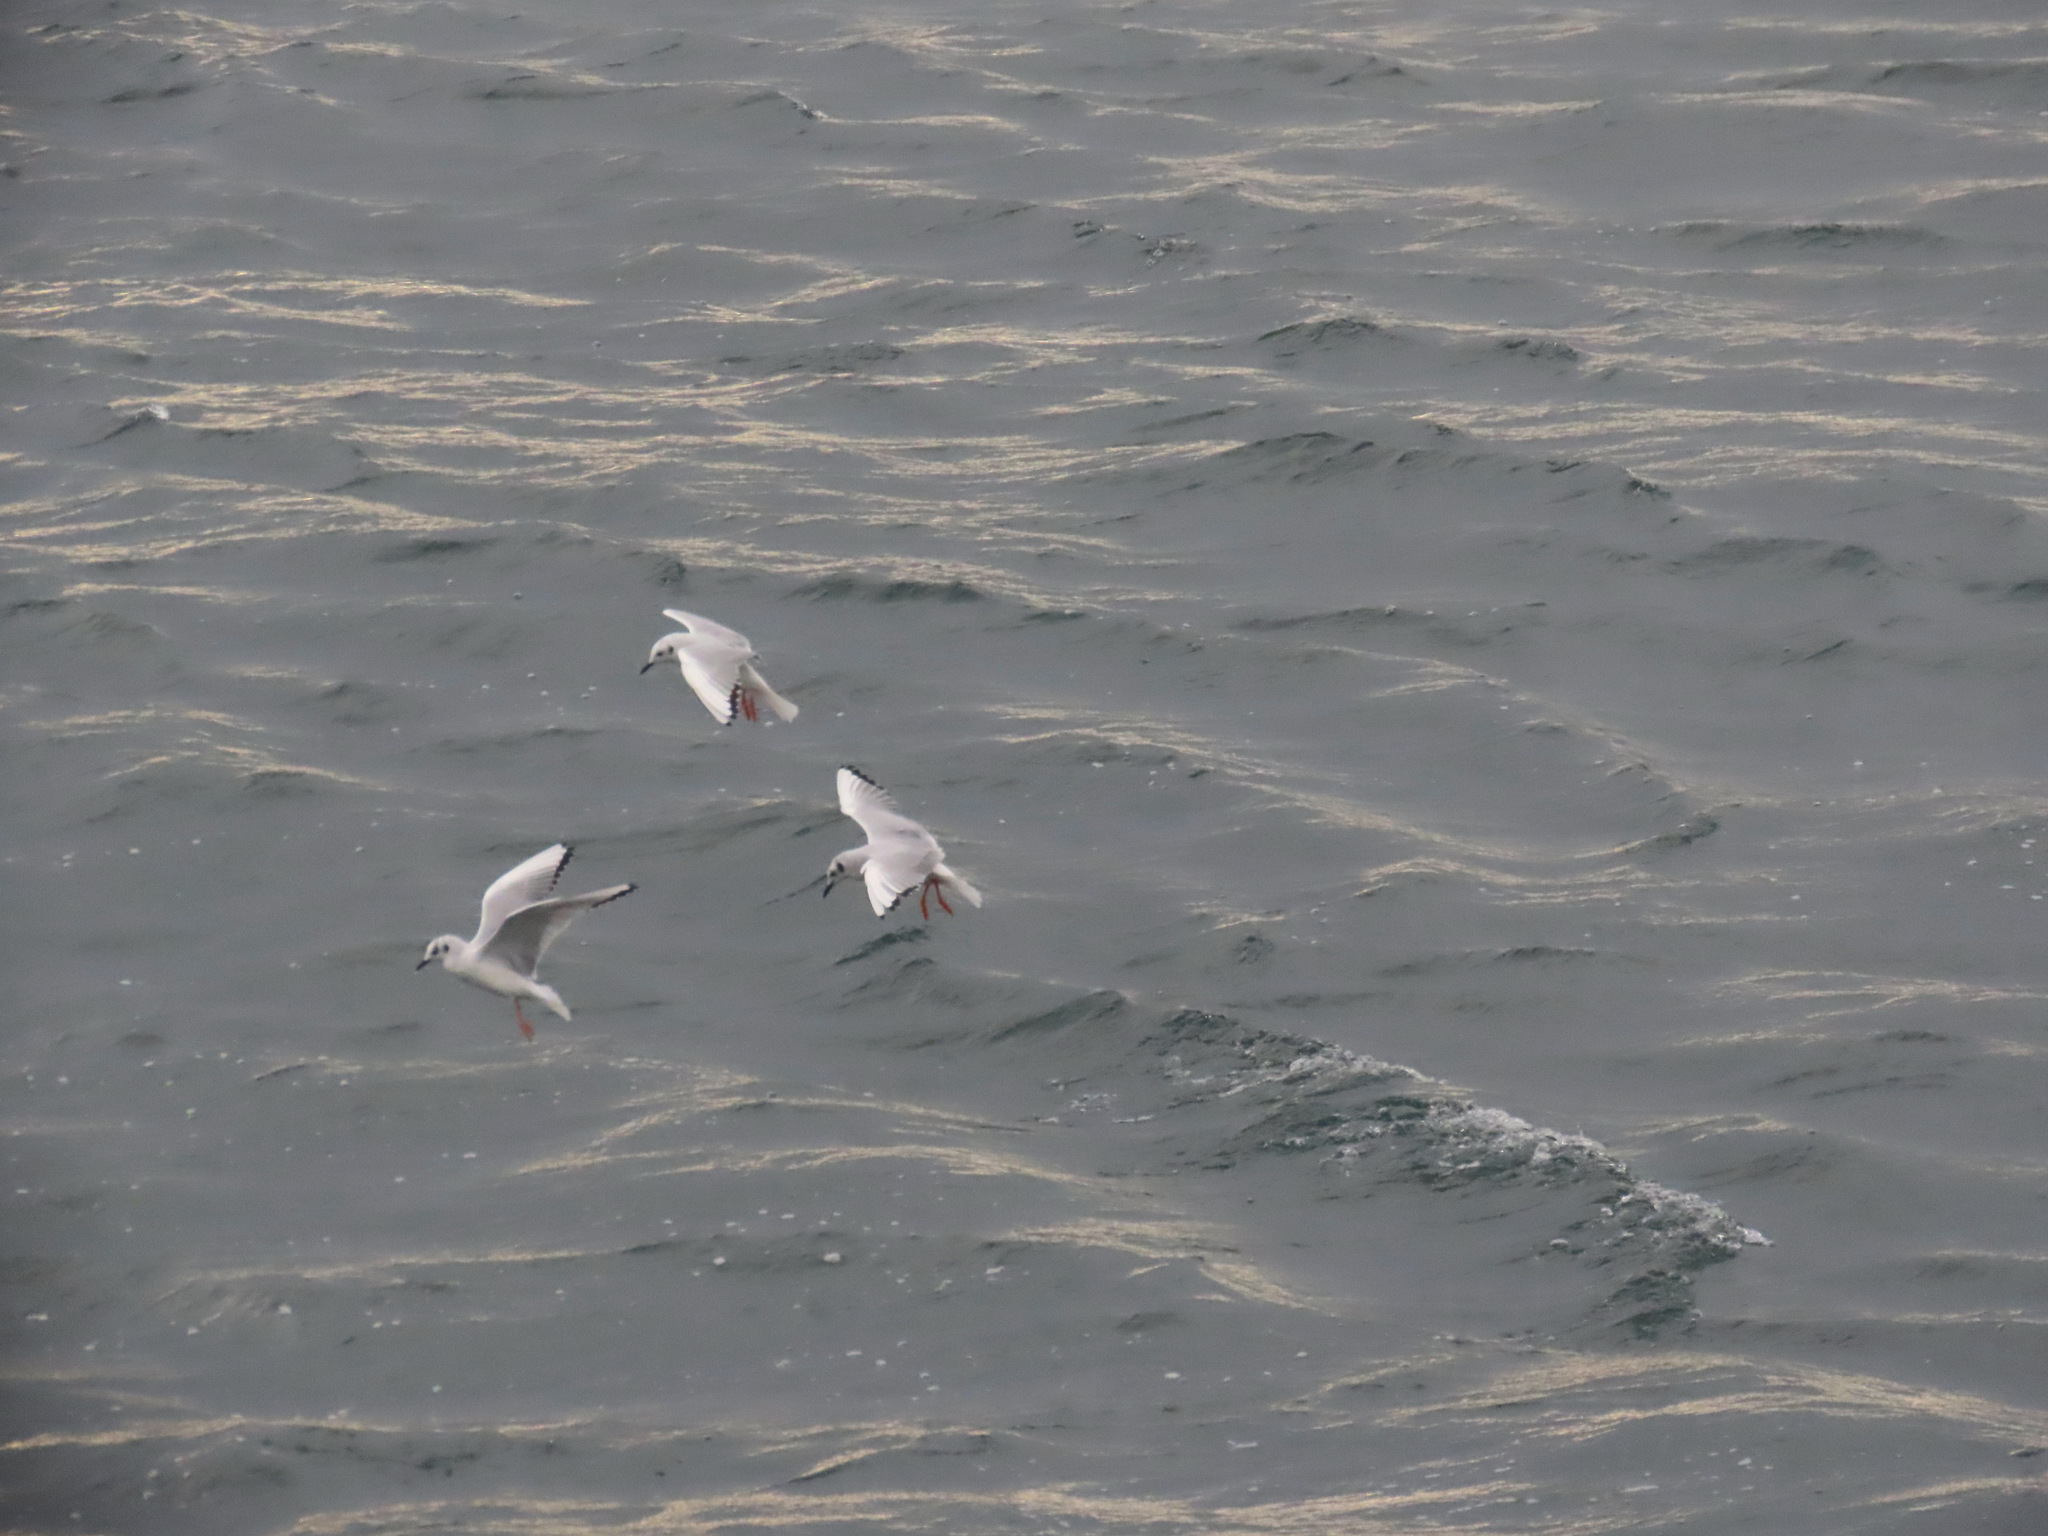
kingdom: Animalia
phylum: Chordata
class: Aves
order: Charadriiformes
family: Laridae
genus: Chroicocephalus
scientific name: Chroicocephalus philadelphia
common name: Bonaparte's gull
